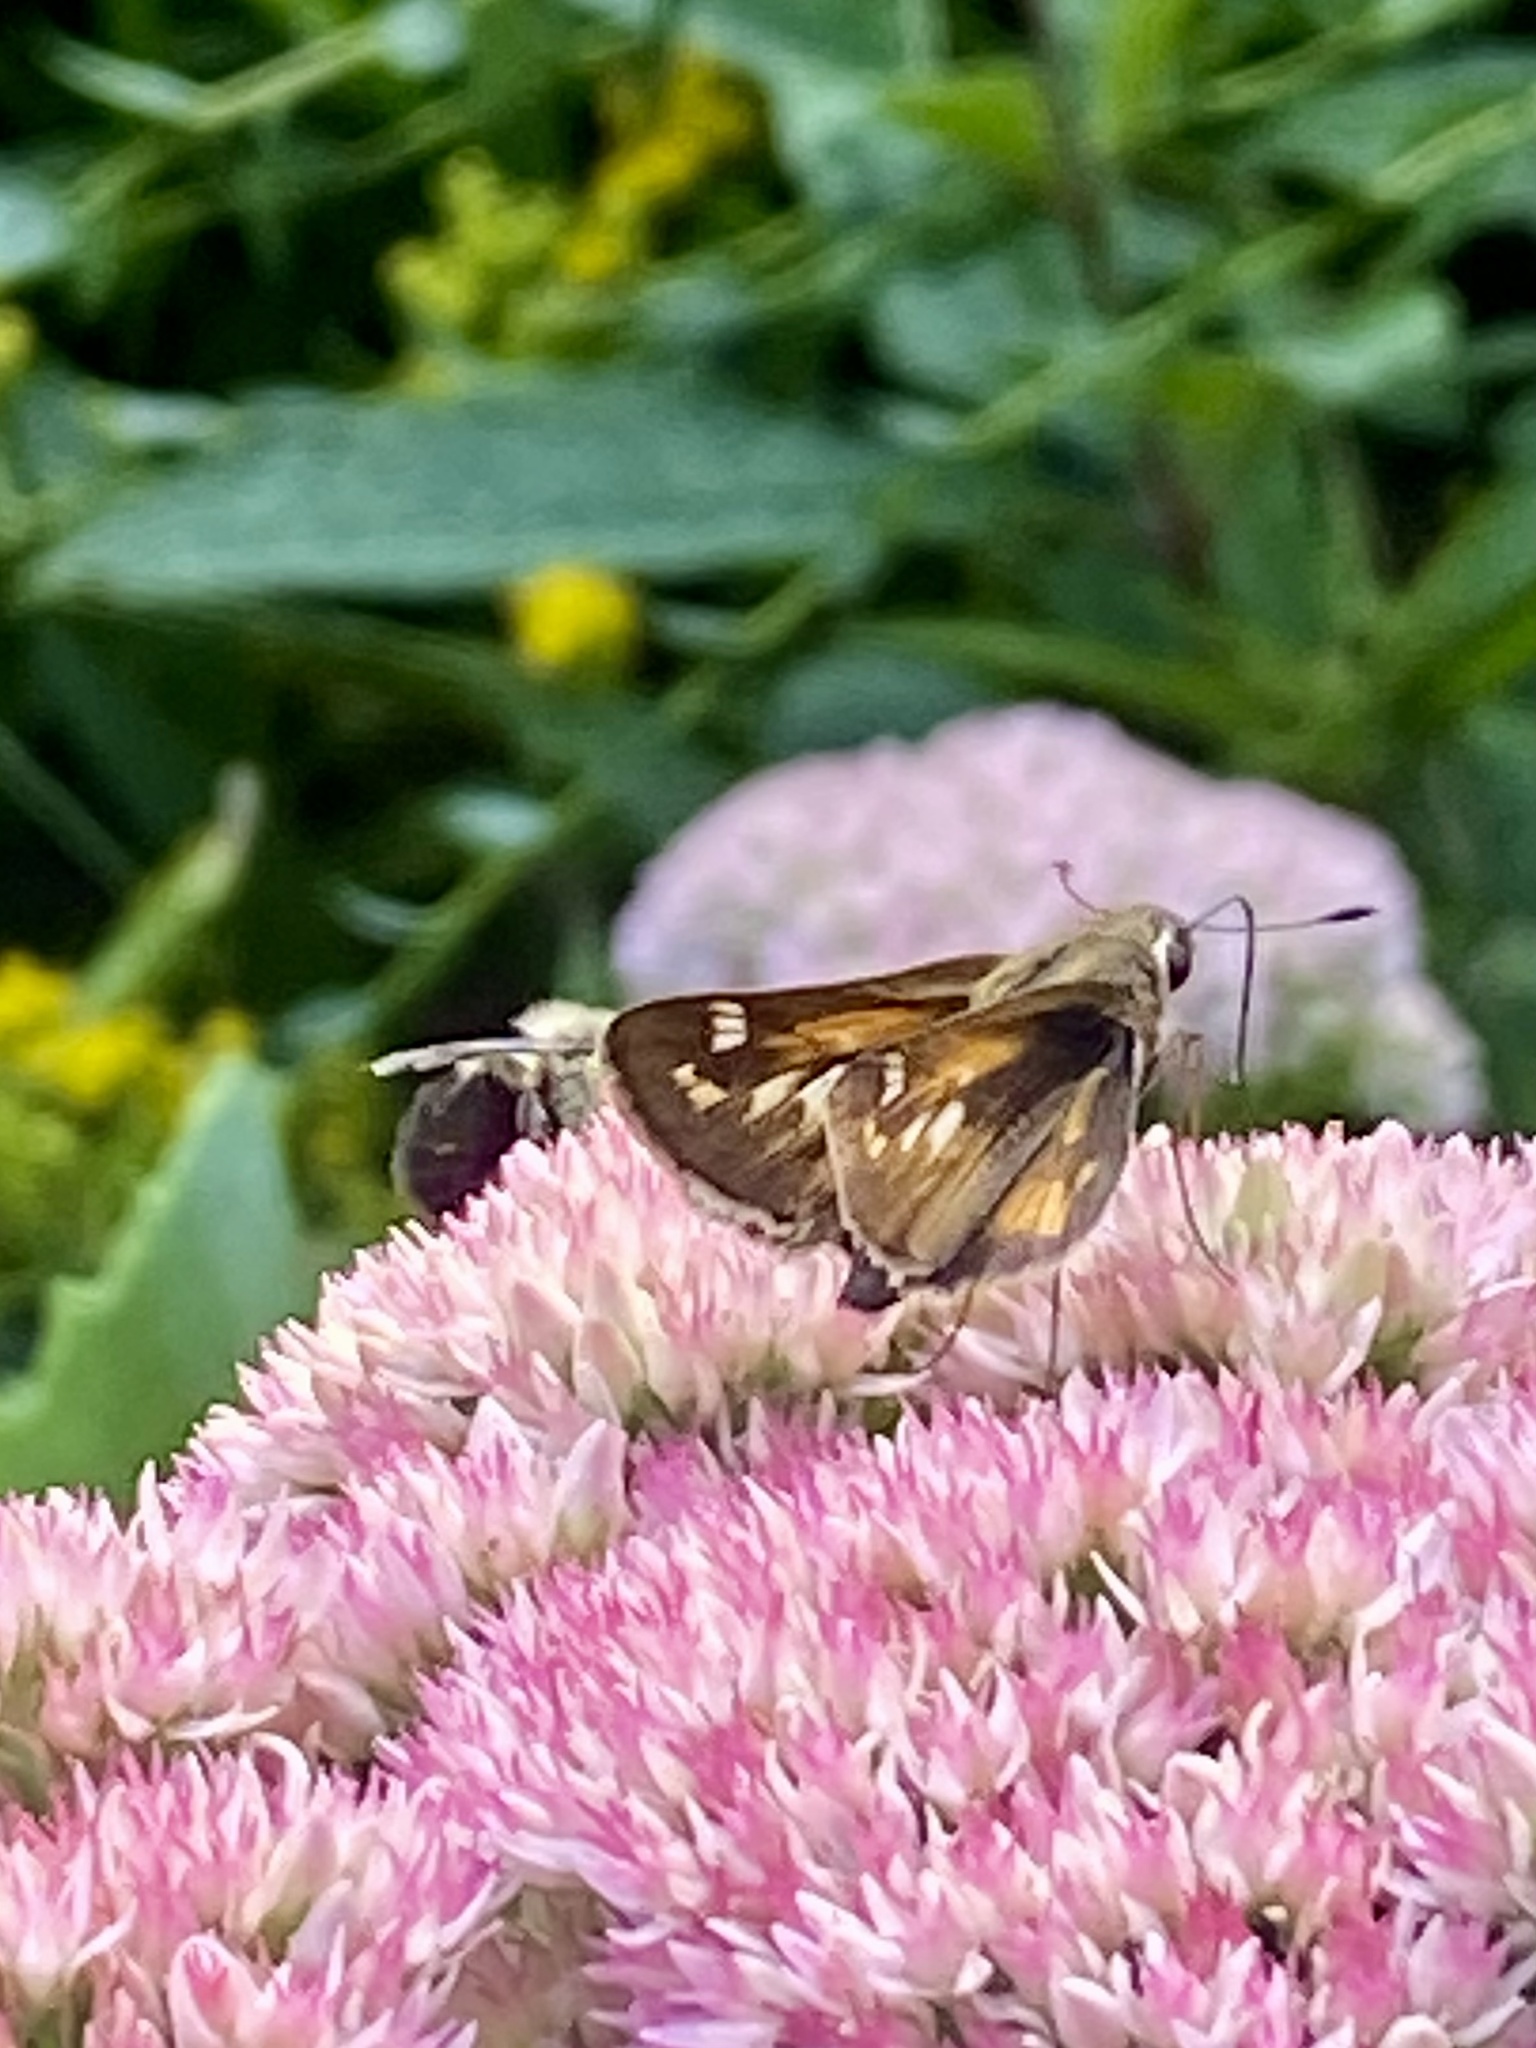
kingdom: Animalia
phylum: Arthropoda
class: Insecta
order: Lepidoptera
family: Hesperiidae
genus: Atalopedes
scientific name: Atalopedes
